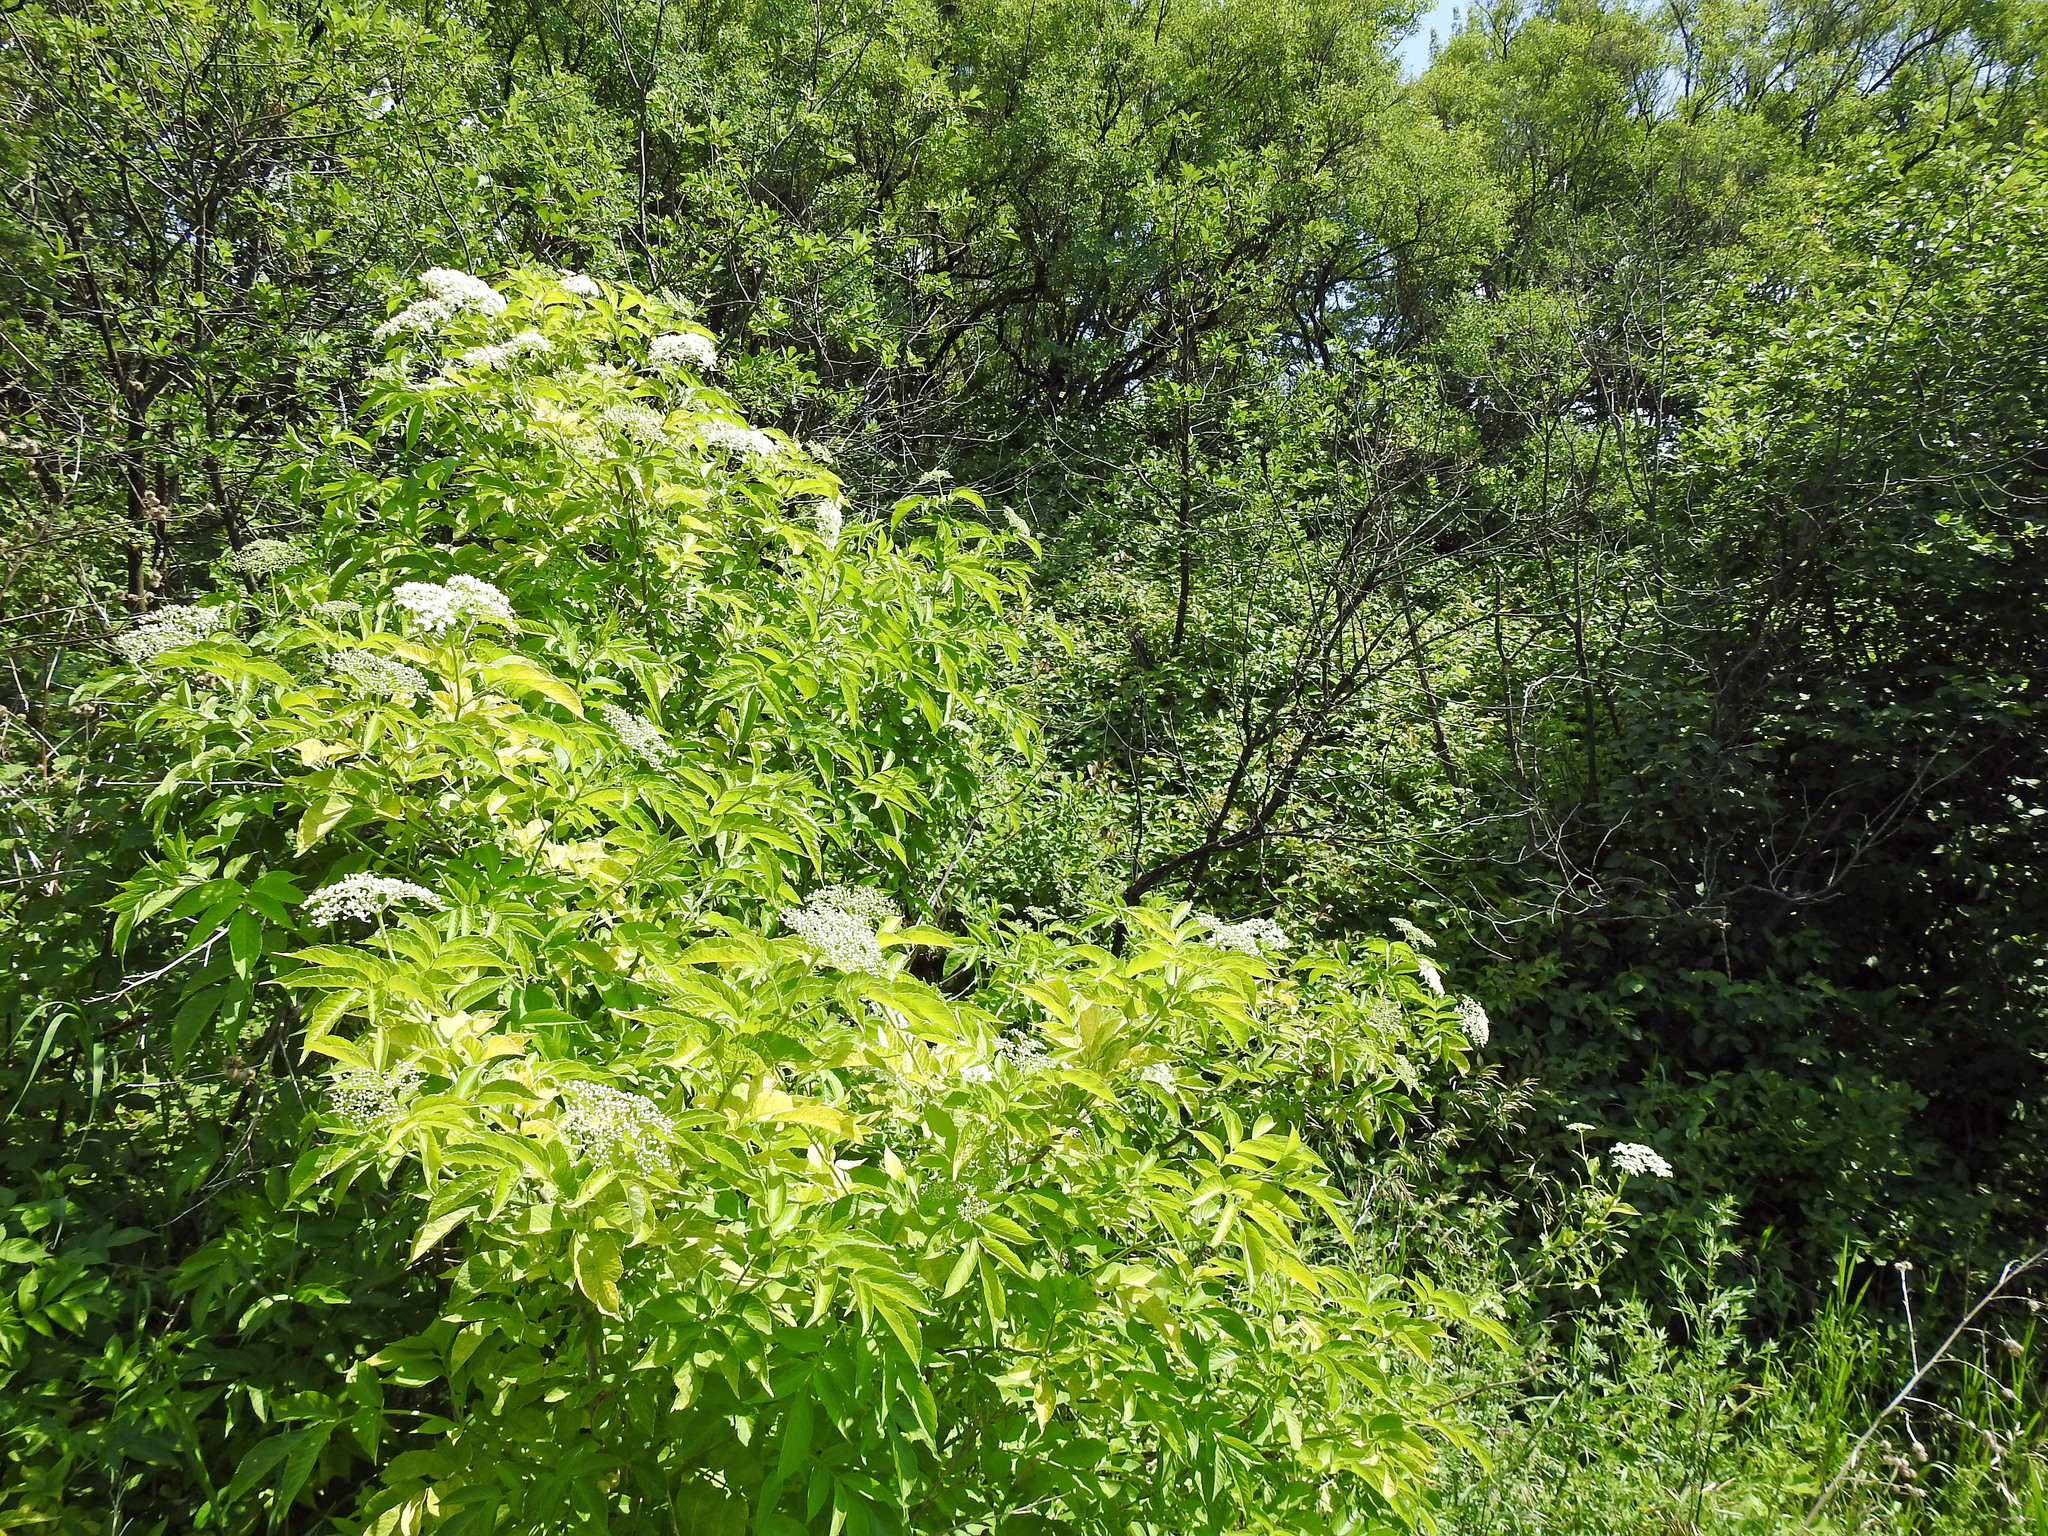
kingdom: Plantae
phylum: Tracheophyta
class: Magnoliopsida
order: Dipsacales
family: Viburnaceae
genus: Sambucus
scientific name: Sambucus canadensis
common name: American elder
